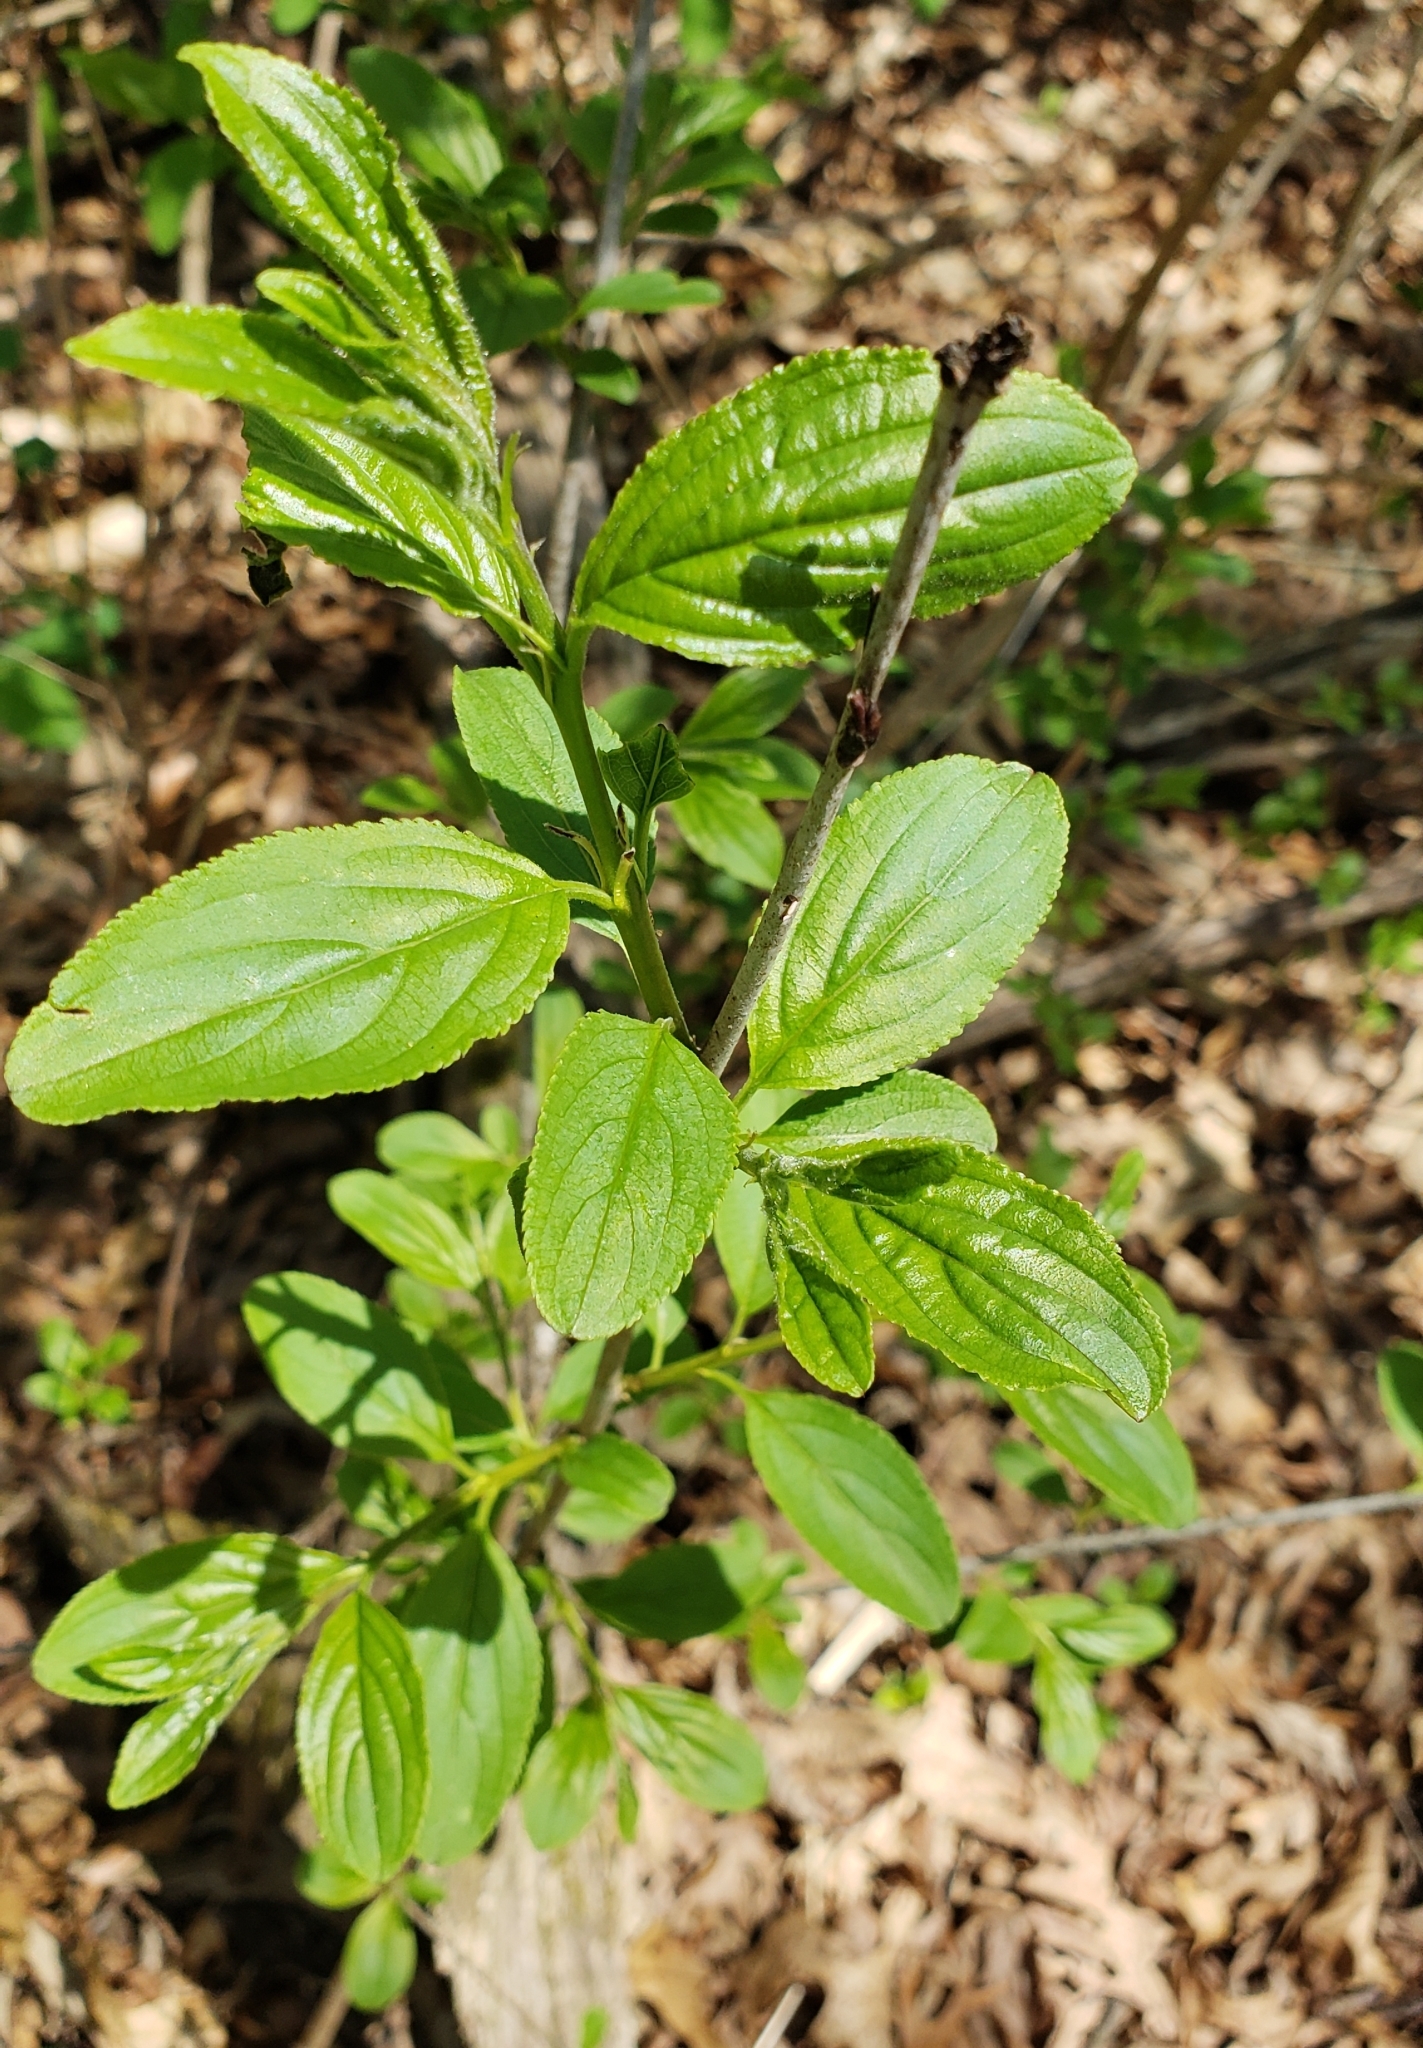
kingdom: Plantae
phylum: Tracheophyta
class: Magnoliopsida
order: Rosales
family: Rhamnaceae
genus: Rhamnus
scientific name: Rhamnus cathartica
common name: Common buckthorn
